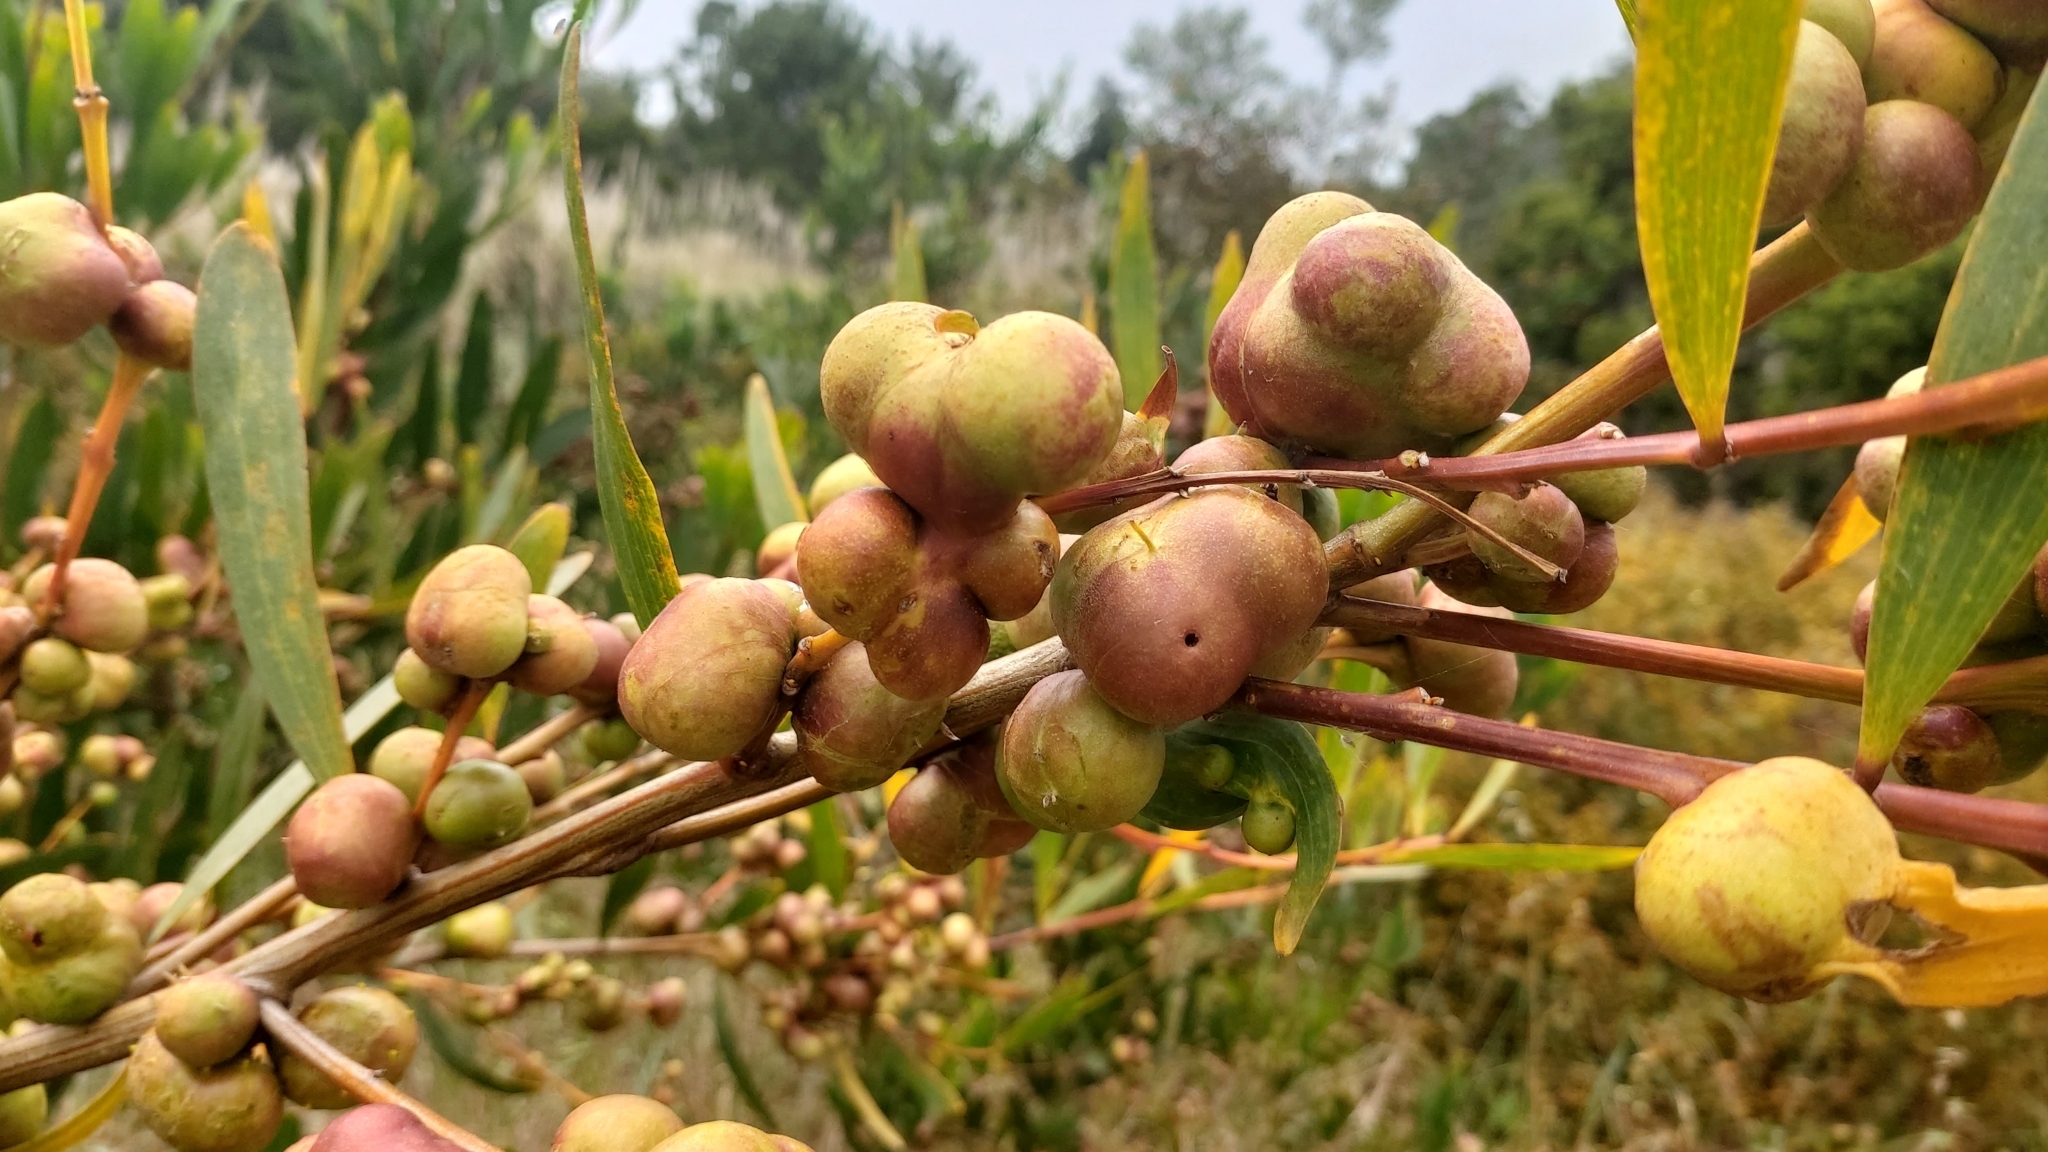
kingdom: Animalia
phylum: Arthropoda
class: Insecta
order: Hymenoptera
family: Pteromalidae
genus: Trichilogaster
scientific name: Trichilogaster acaciaelongifoliae
